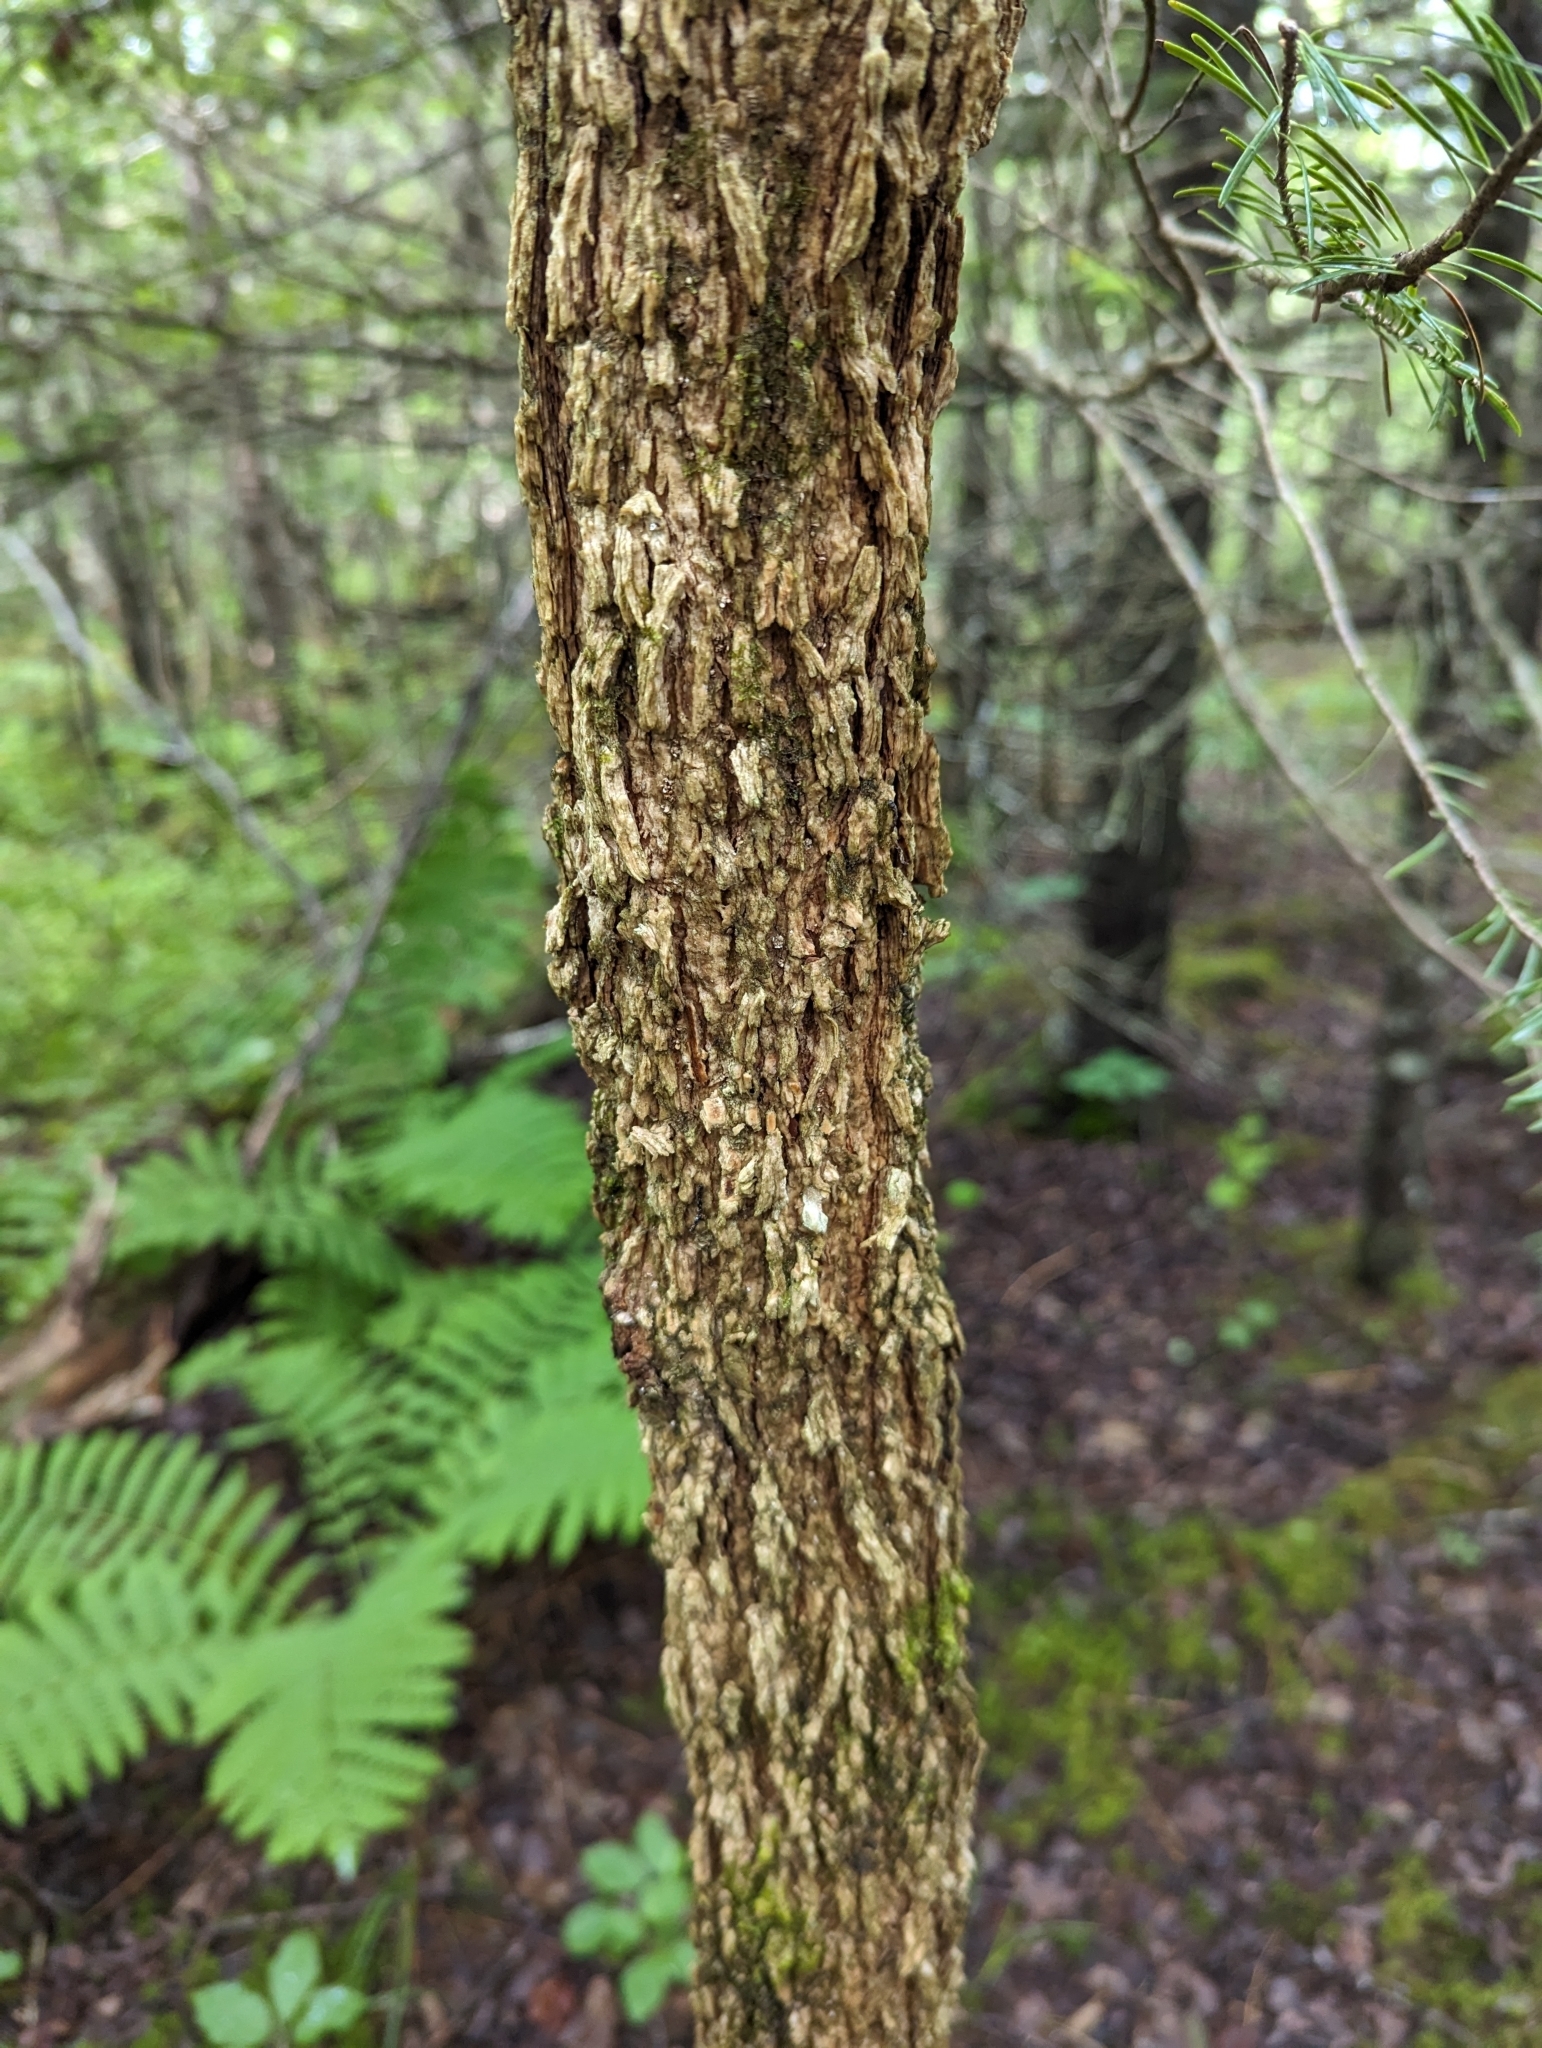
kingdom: Plantae
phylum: Tracheophyta
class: Magnoliopsida
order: Lamiales
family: Oleaceae
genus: Fraxinus
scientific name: Fraxinus nigra
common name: Black ash
